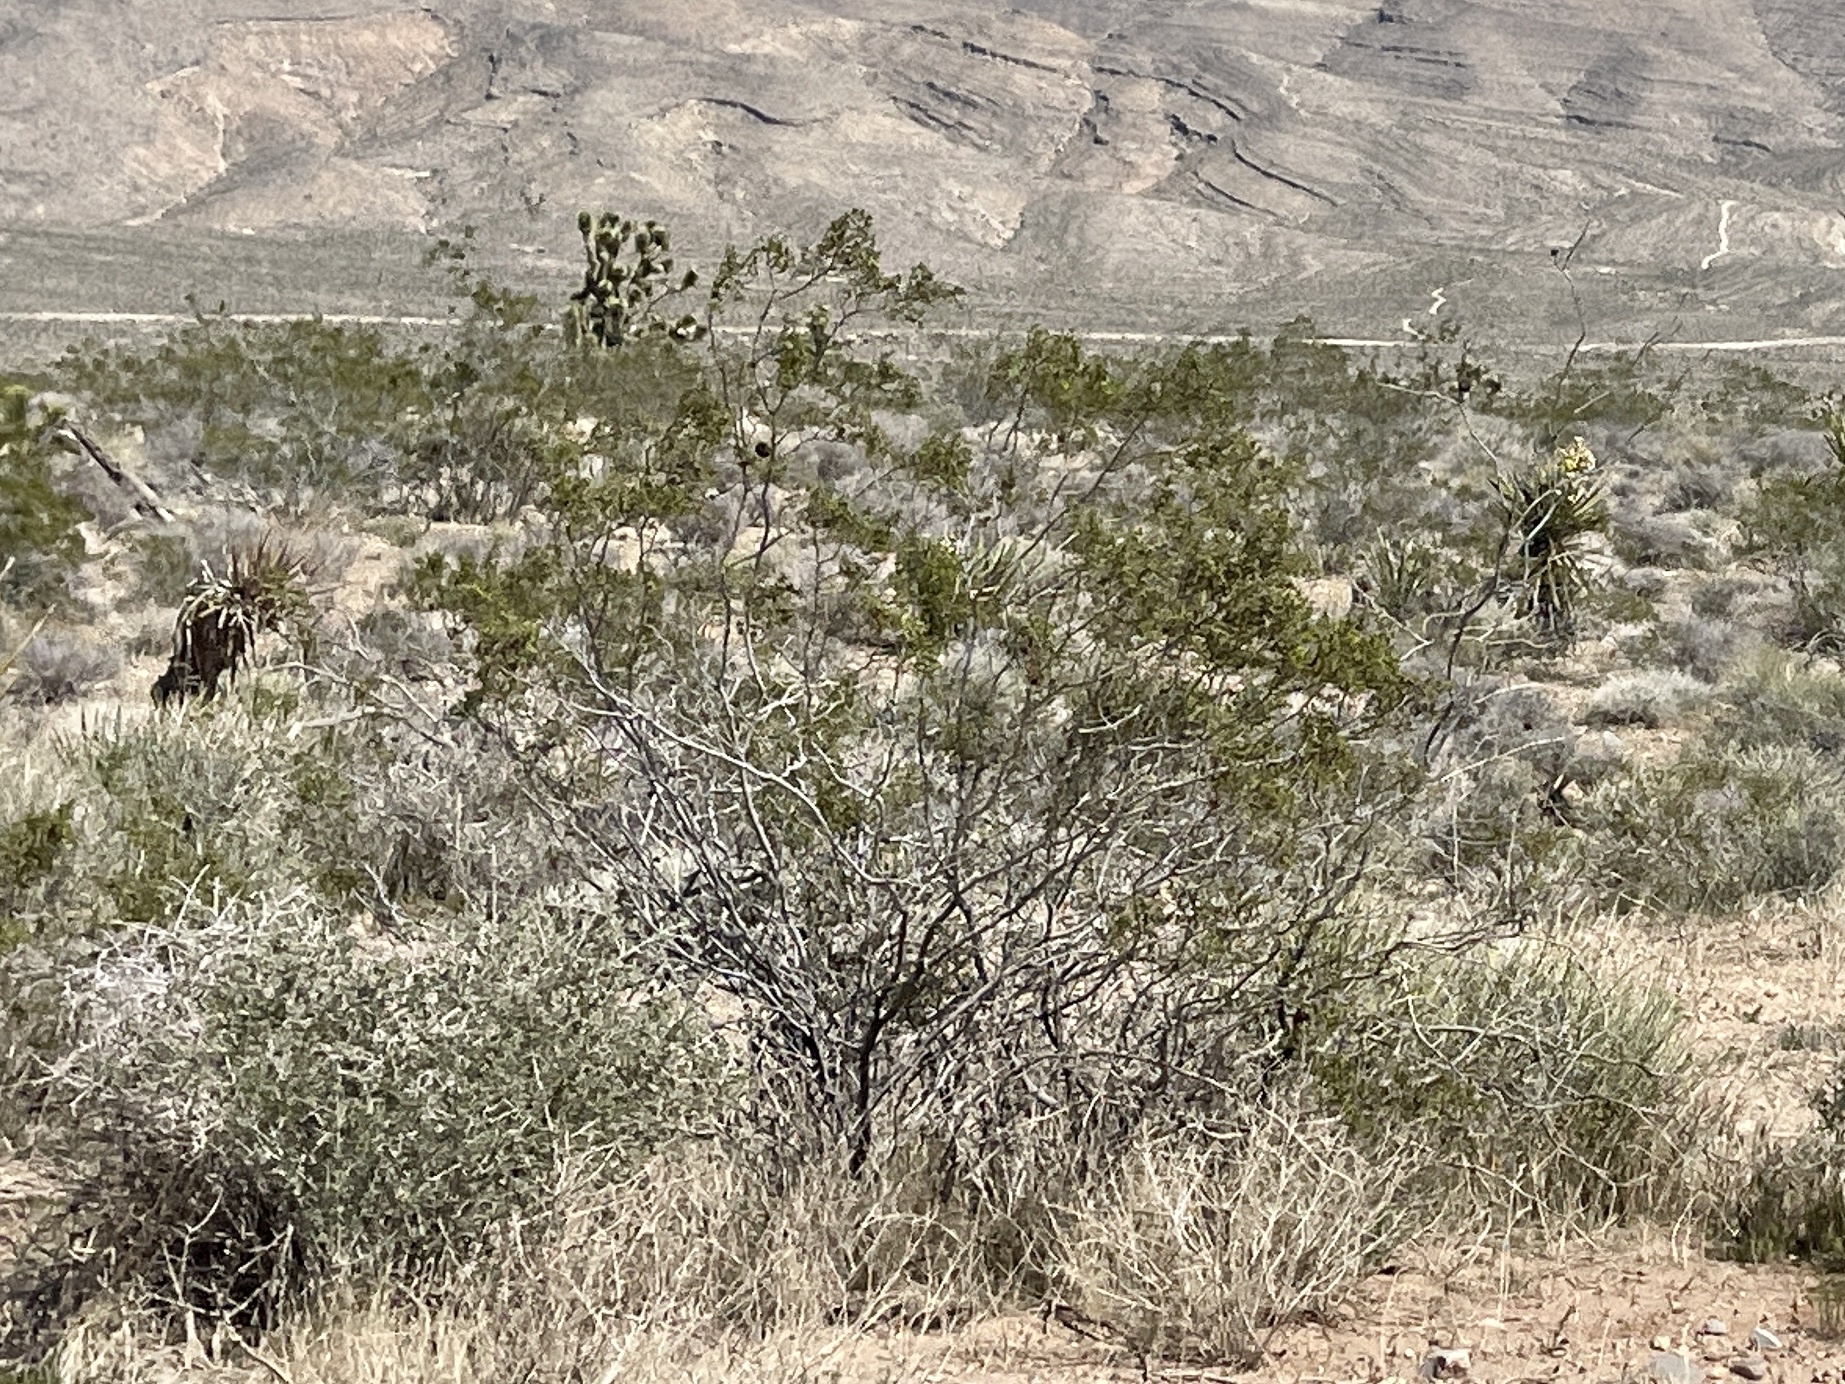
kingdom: Plantae
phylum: Tracheophyta
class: Magnoliopsida
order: Zygophyllales
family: Zygophyllaceae
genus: Larrea
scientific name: Larrea tridentata
